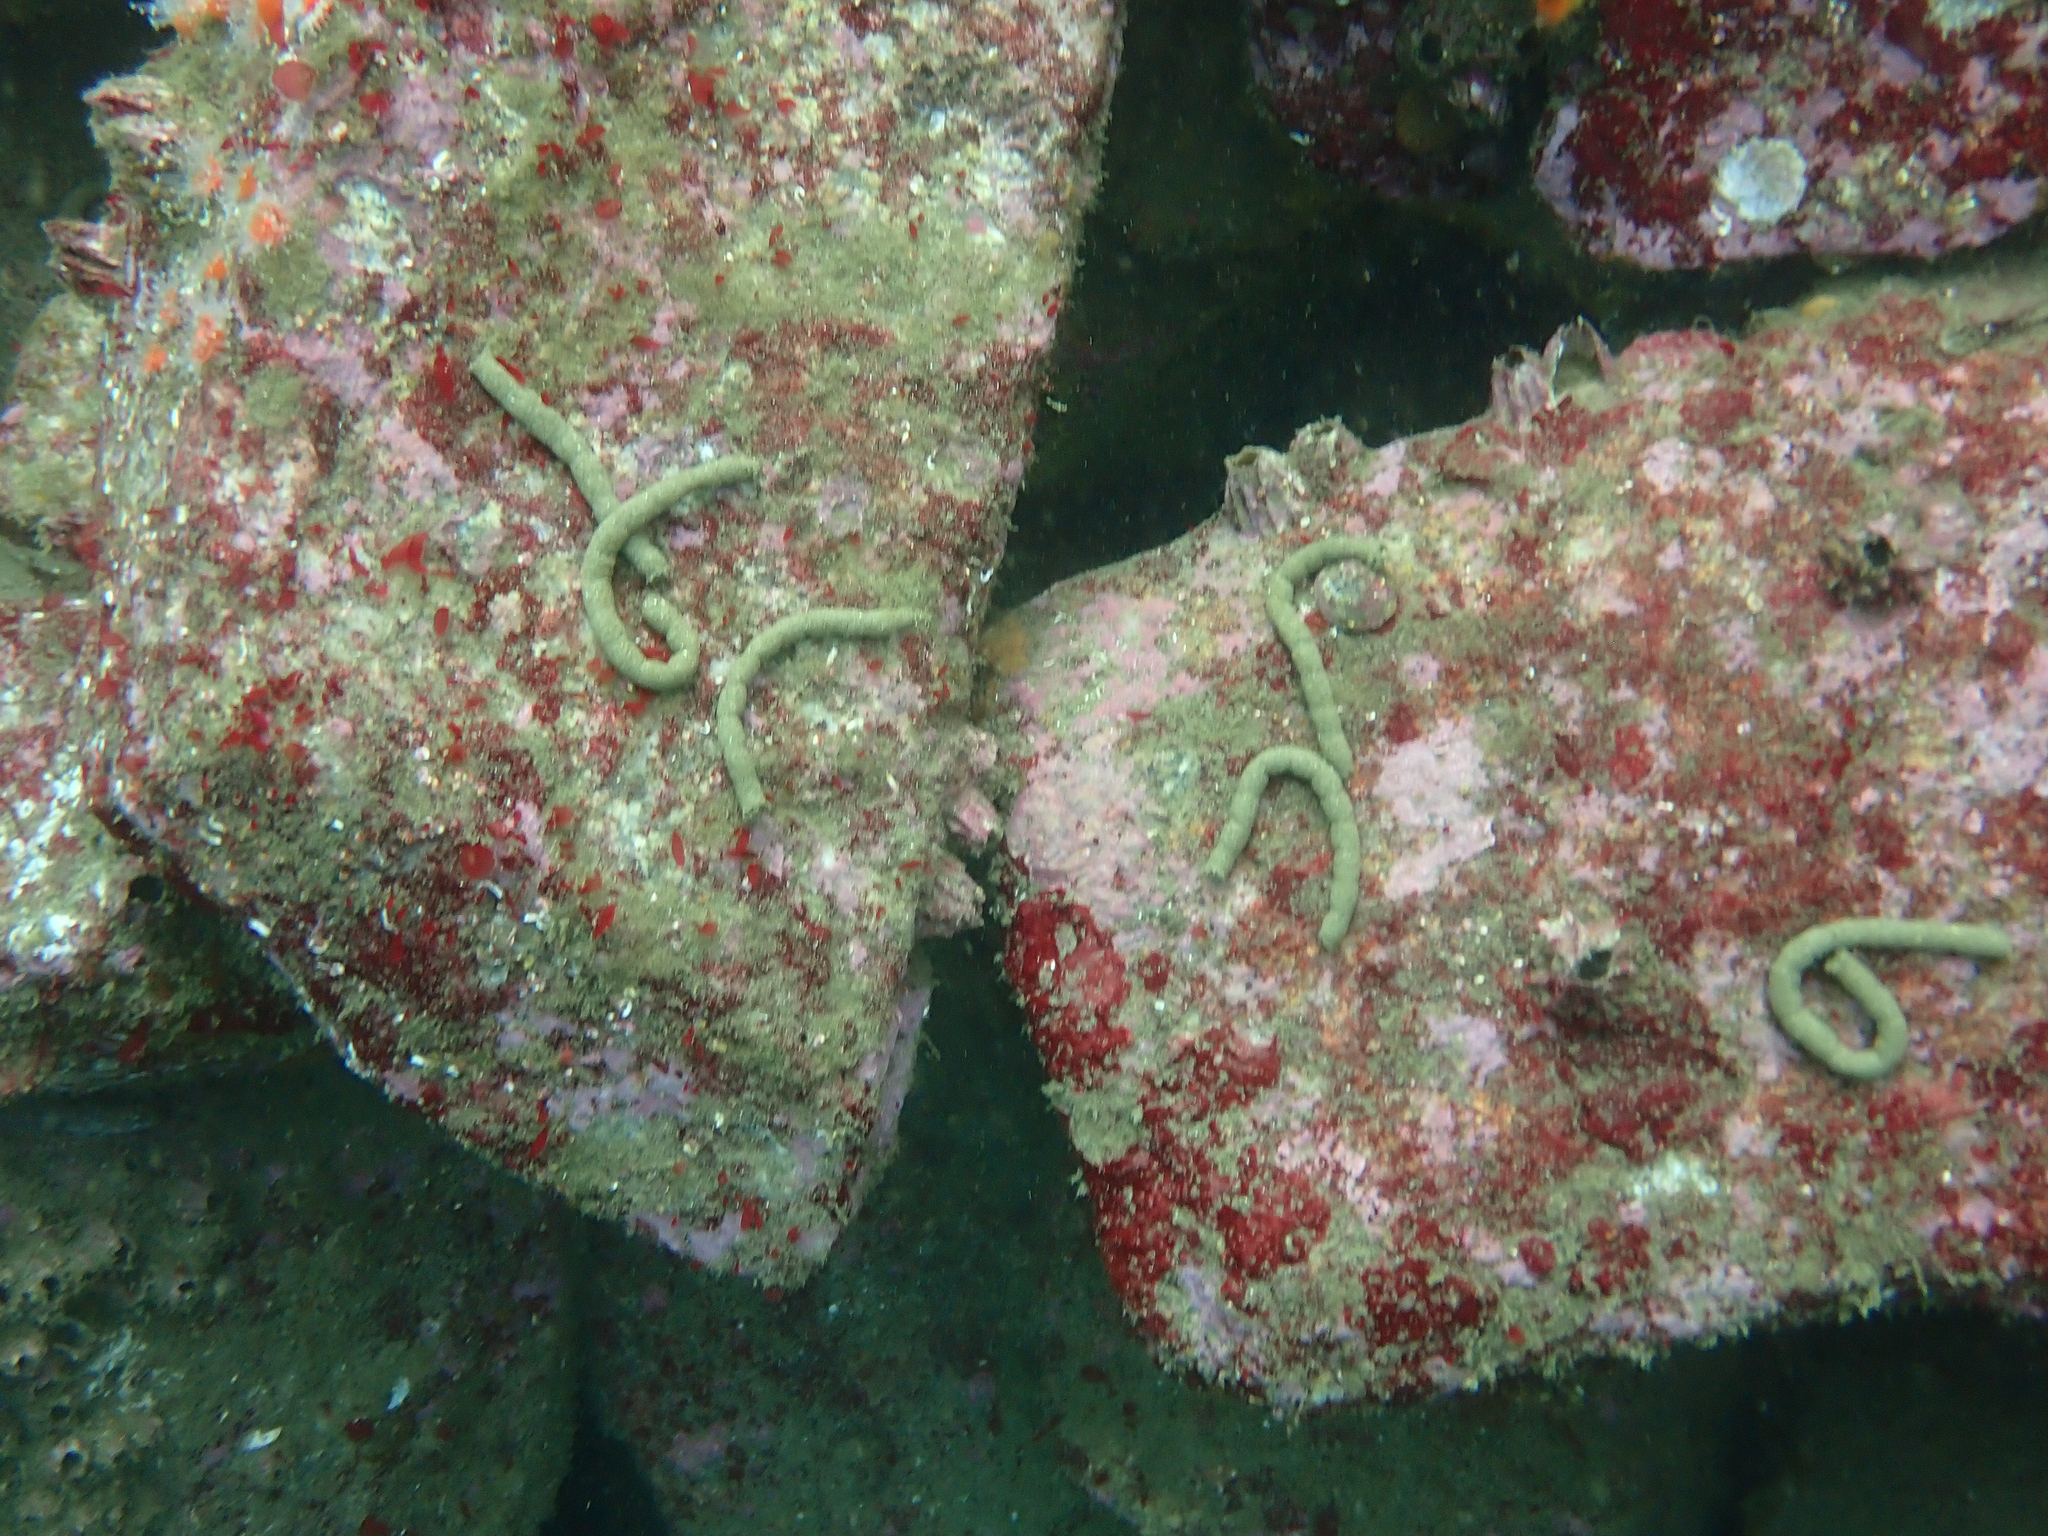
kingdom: Animalia
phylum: Echinodermata
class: Holothuroidea
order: Synallactida
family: Stichopodidae
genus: Apostichopus
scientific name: Apostichopus parvimensis
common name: Warty sea cucumber
